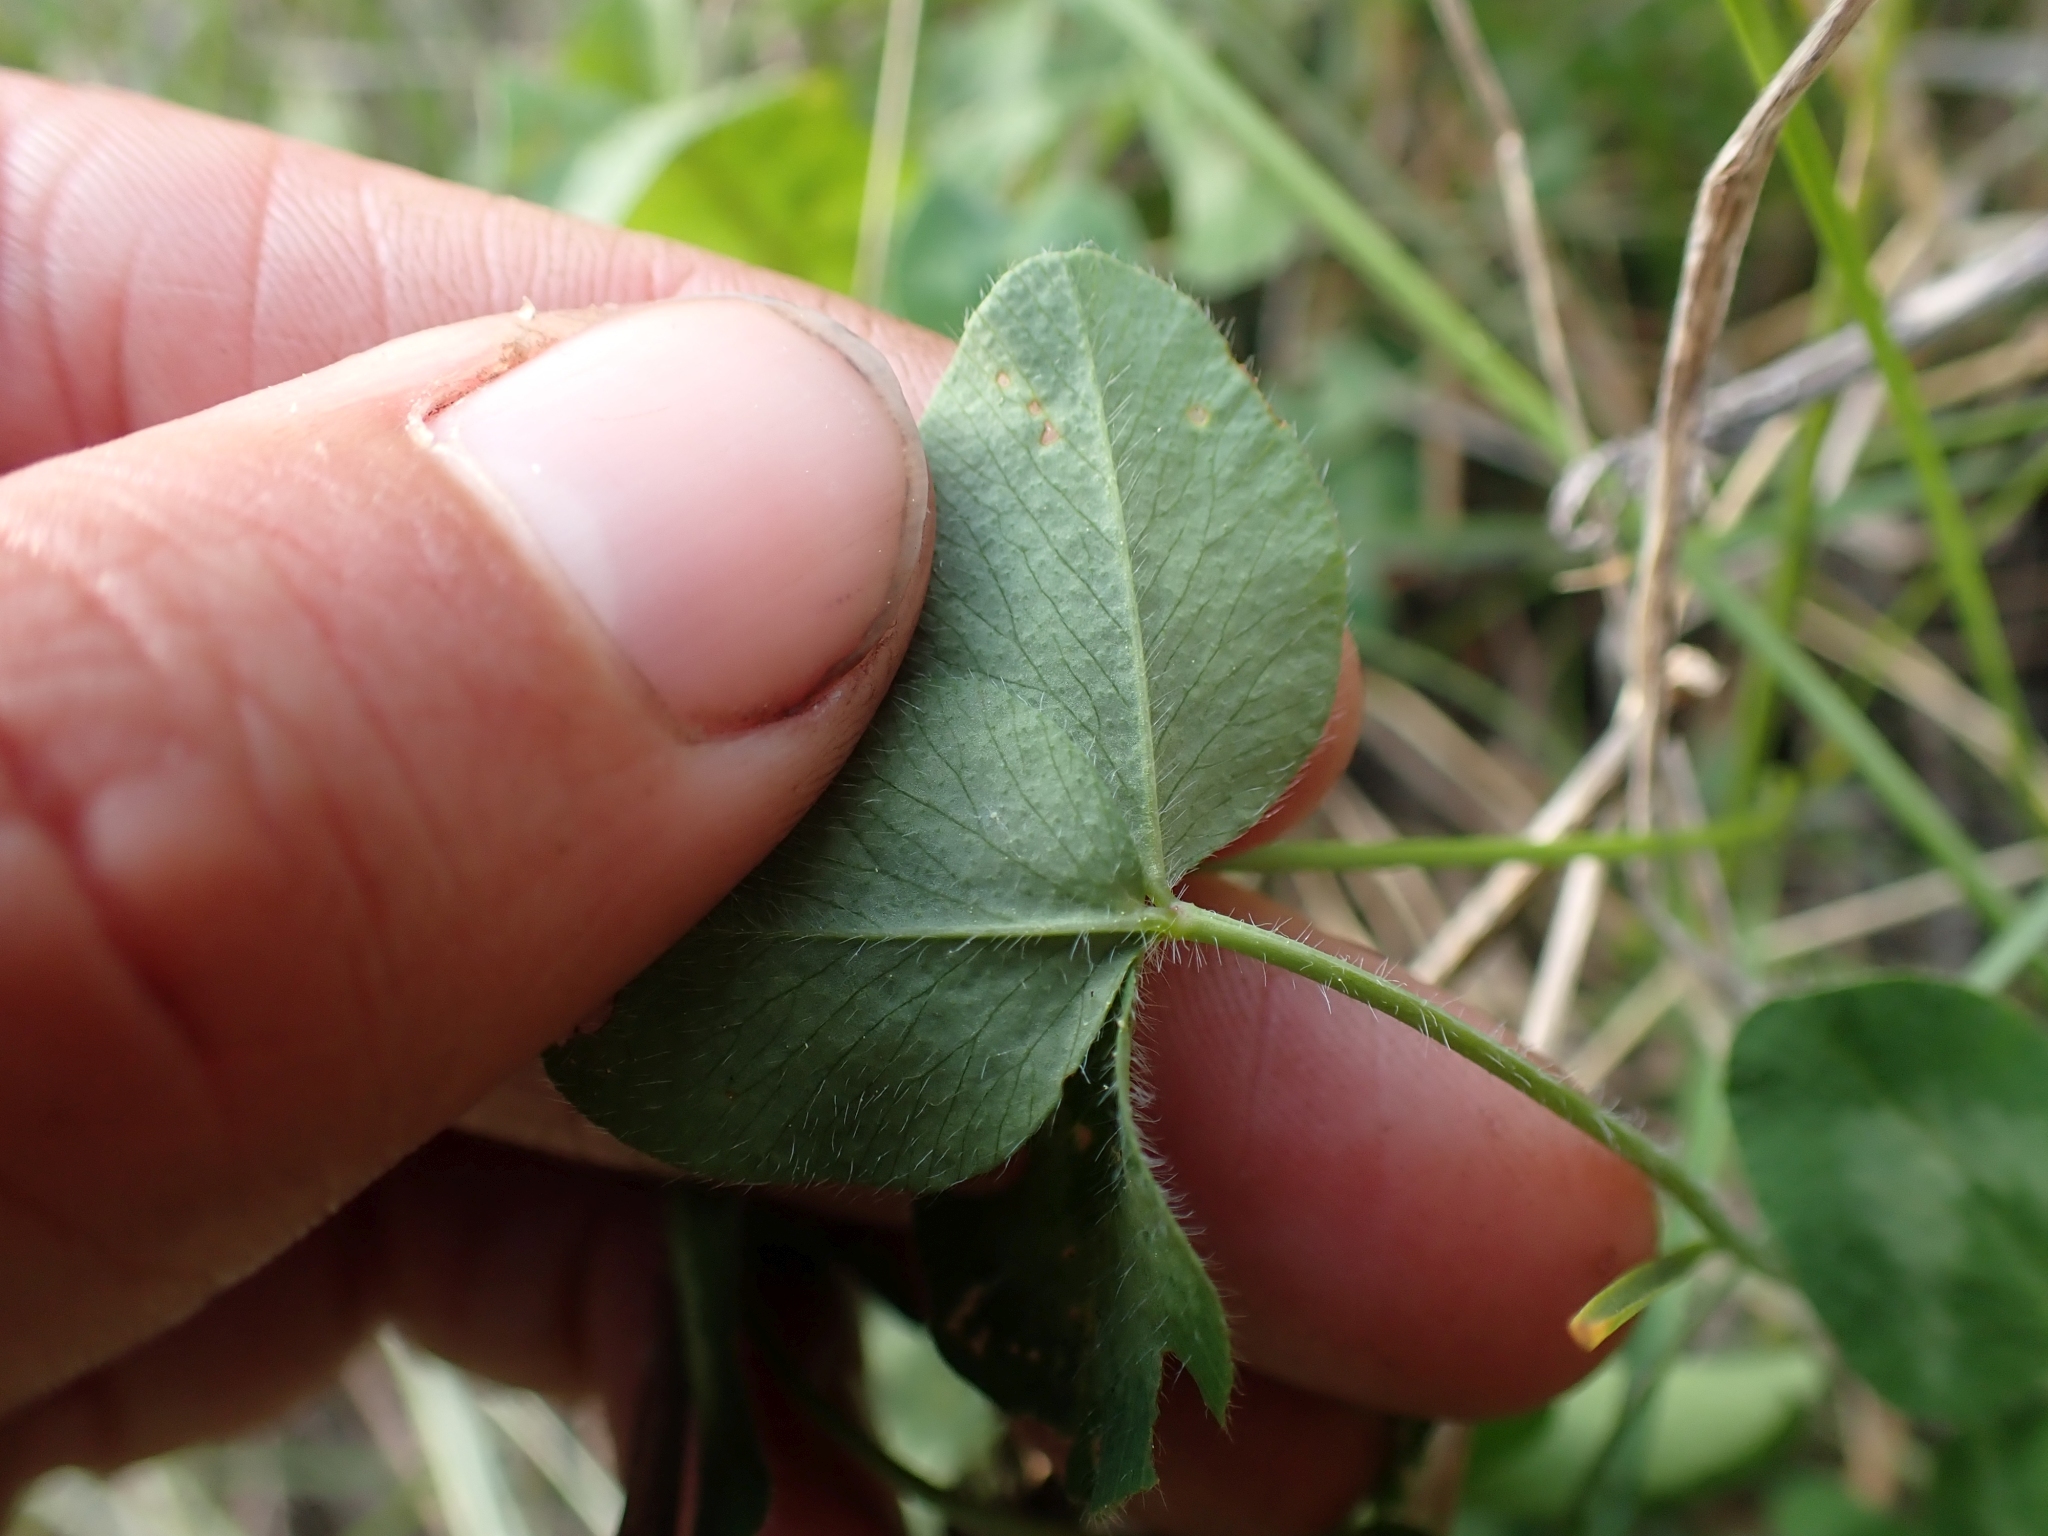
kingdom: Plantae
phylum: Tracheophyta
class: Magnoliopsida
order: Fabales
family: Fabaceae
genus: Trifolium
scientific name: Trifolium pratense
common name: Red clover
